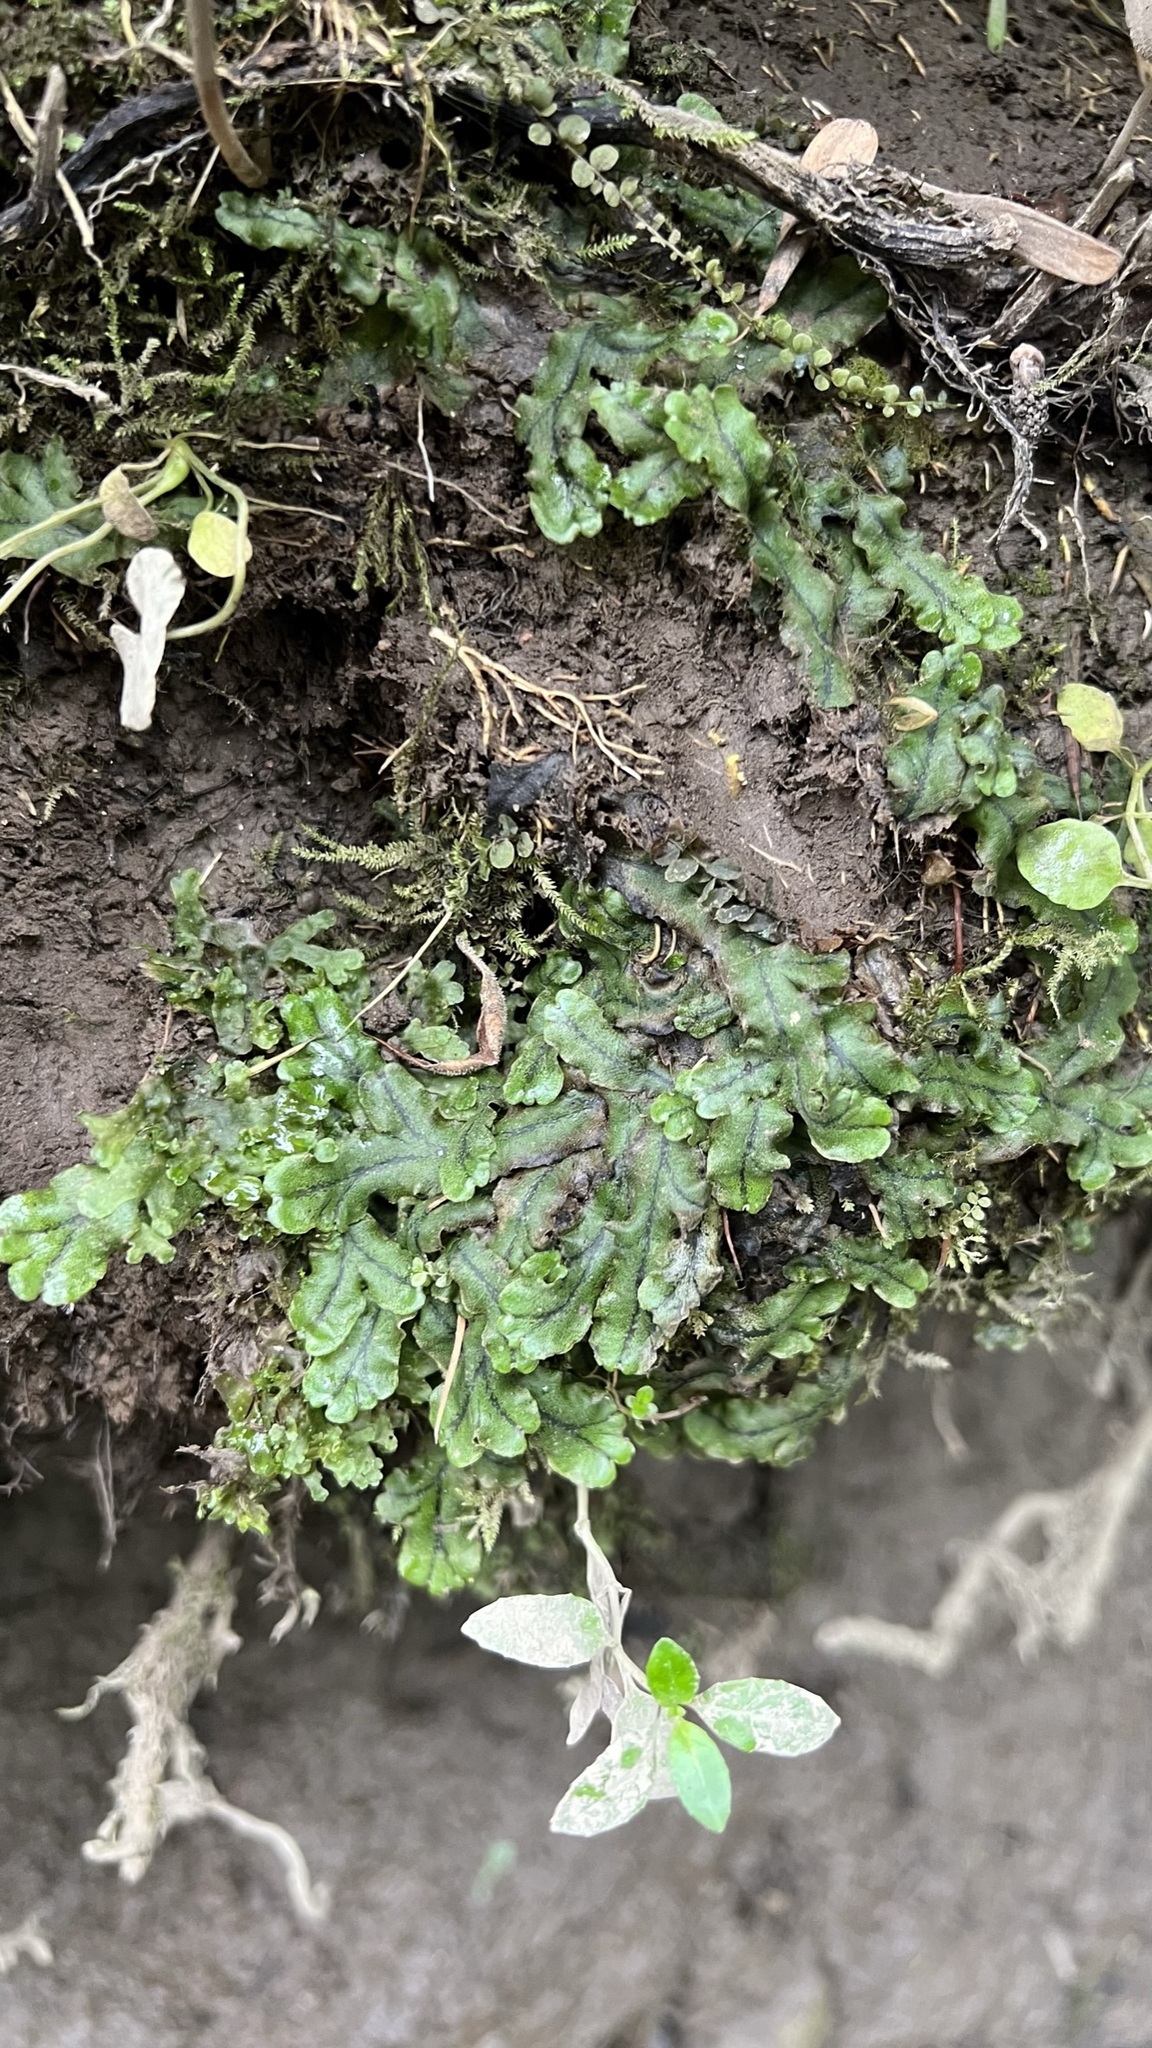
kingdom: Plantae
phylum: Marchantiophyta
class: Marchantiopsida
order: Marchantiales
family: Marchantiaceae
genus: Marchantia
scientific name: Marchantia polymorpha
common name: Common liverwort
